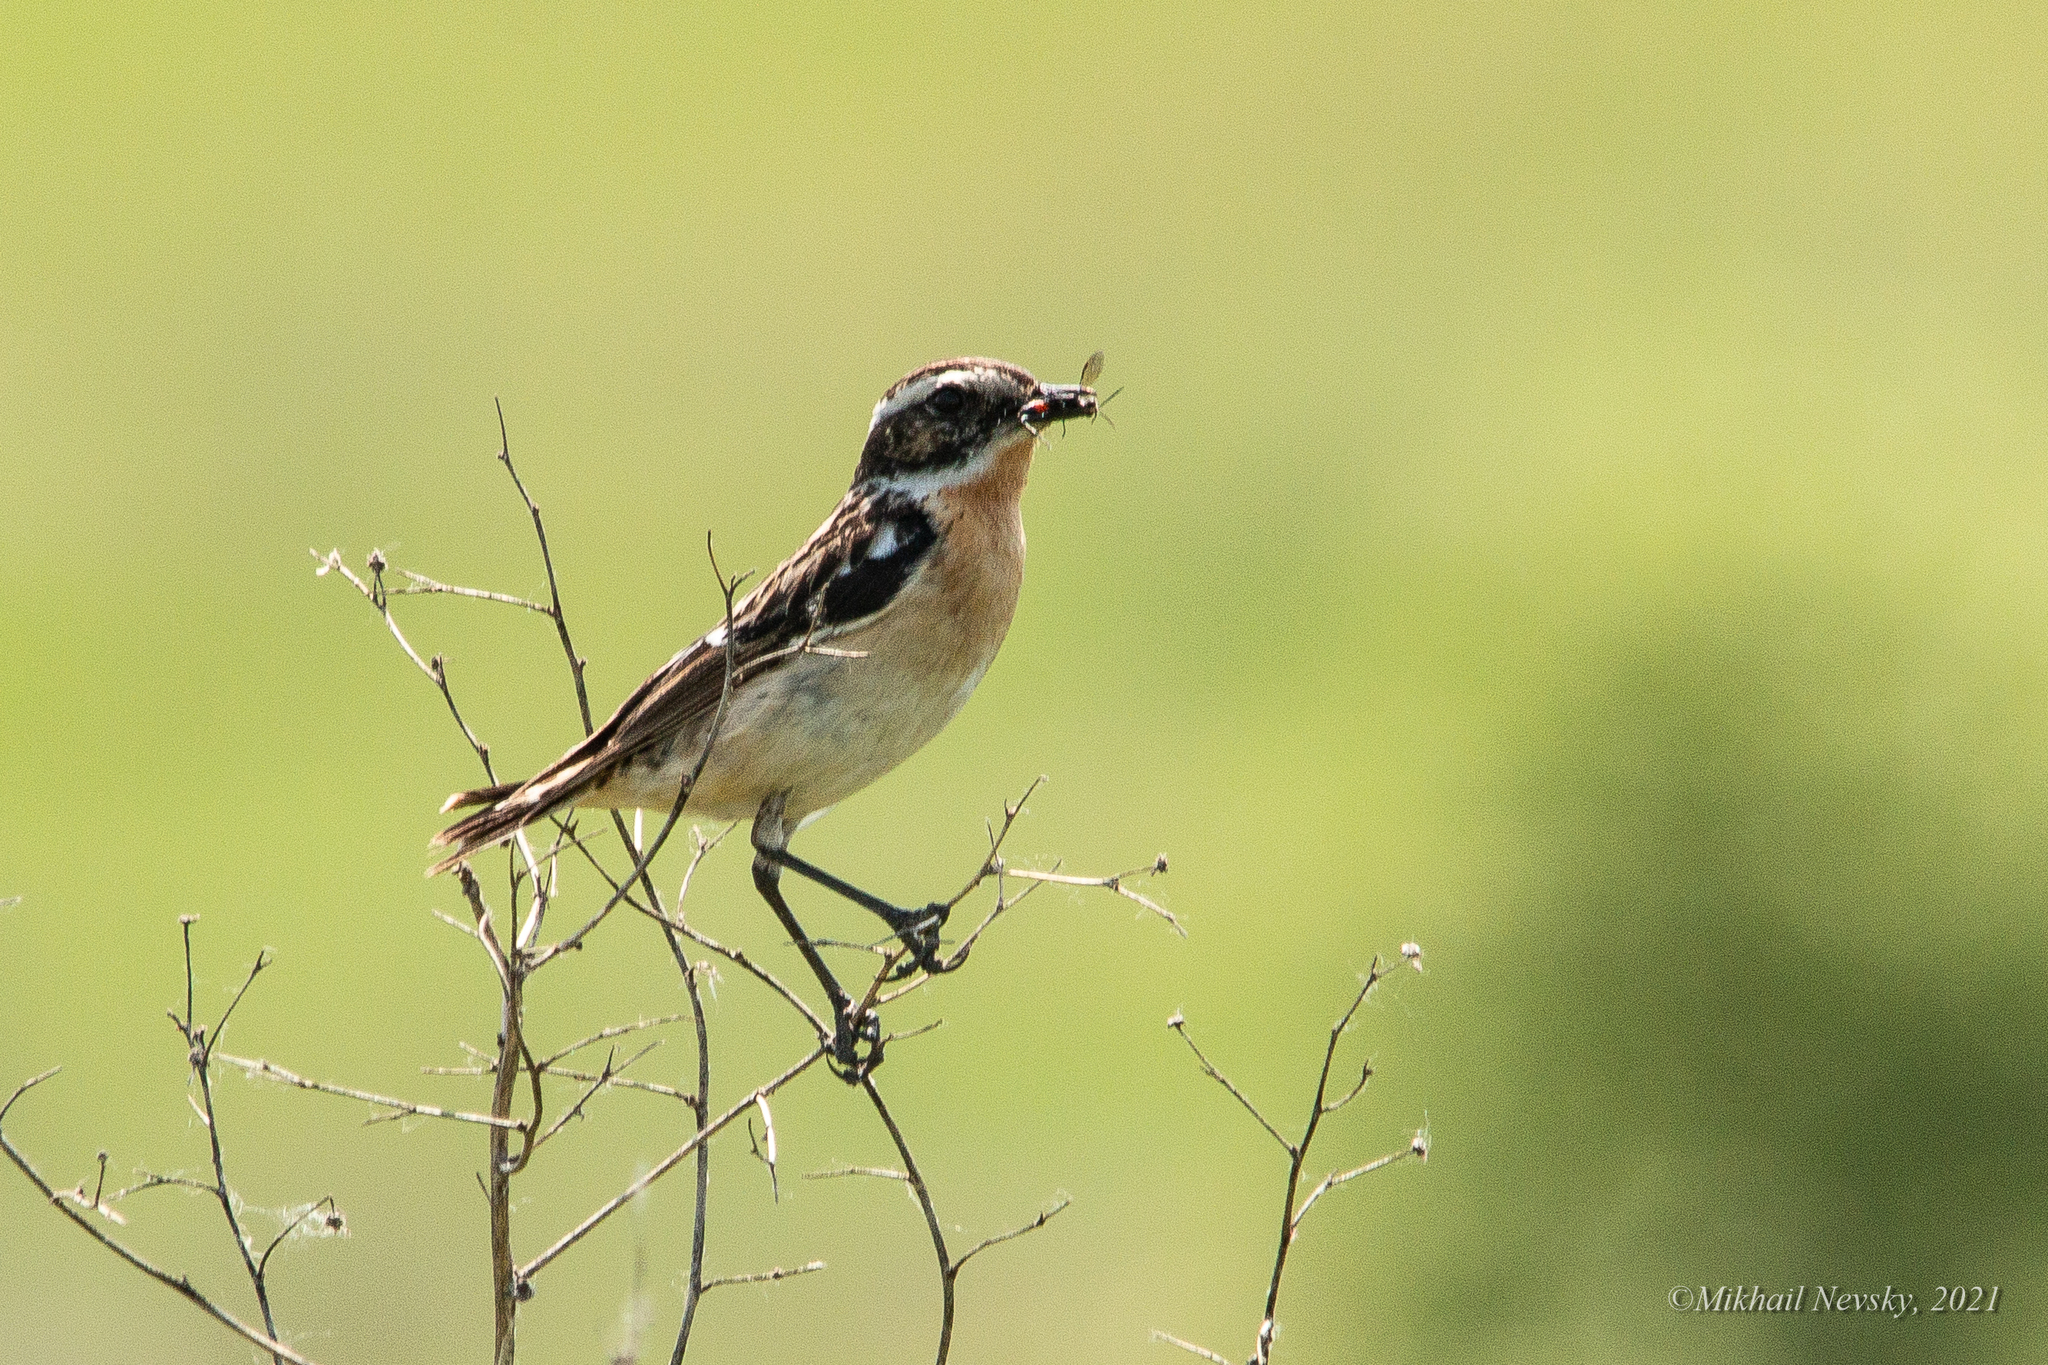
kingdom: Animalia
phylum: Chordata
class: Aves
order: Passeriformes
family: Muscicapidae
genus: Saxicola
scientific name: Saxicola rubetra
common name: Whinchat
